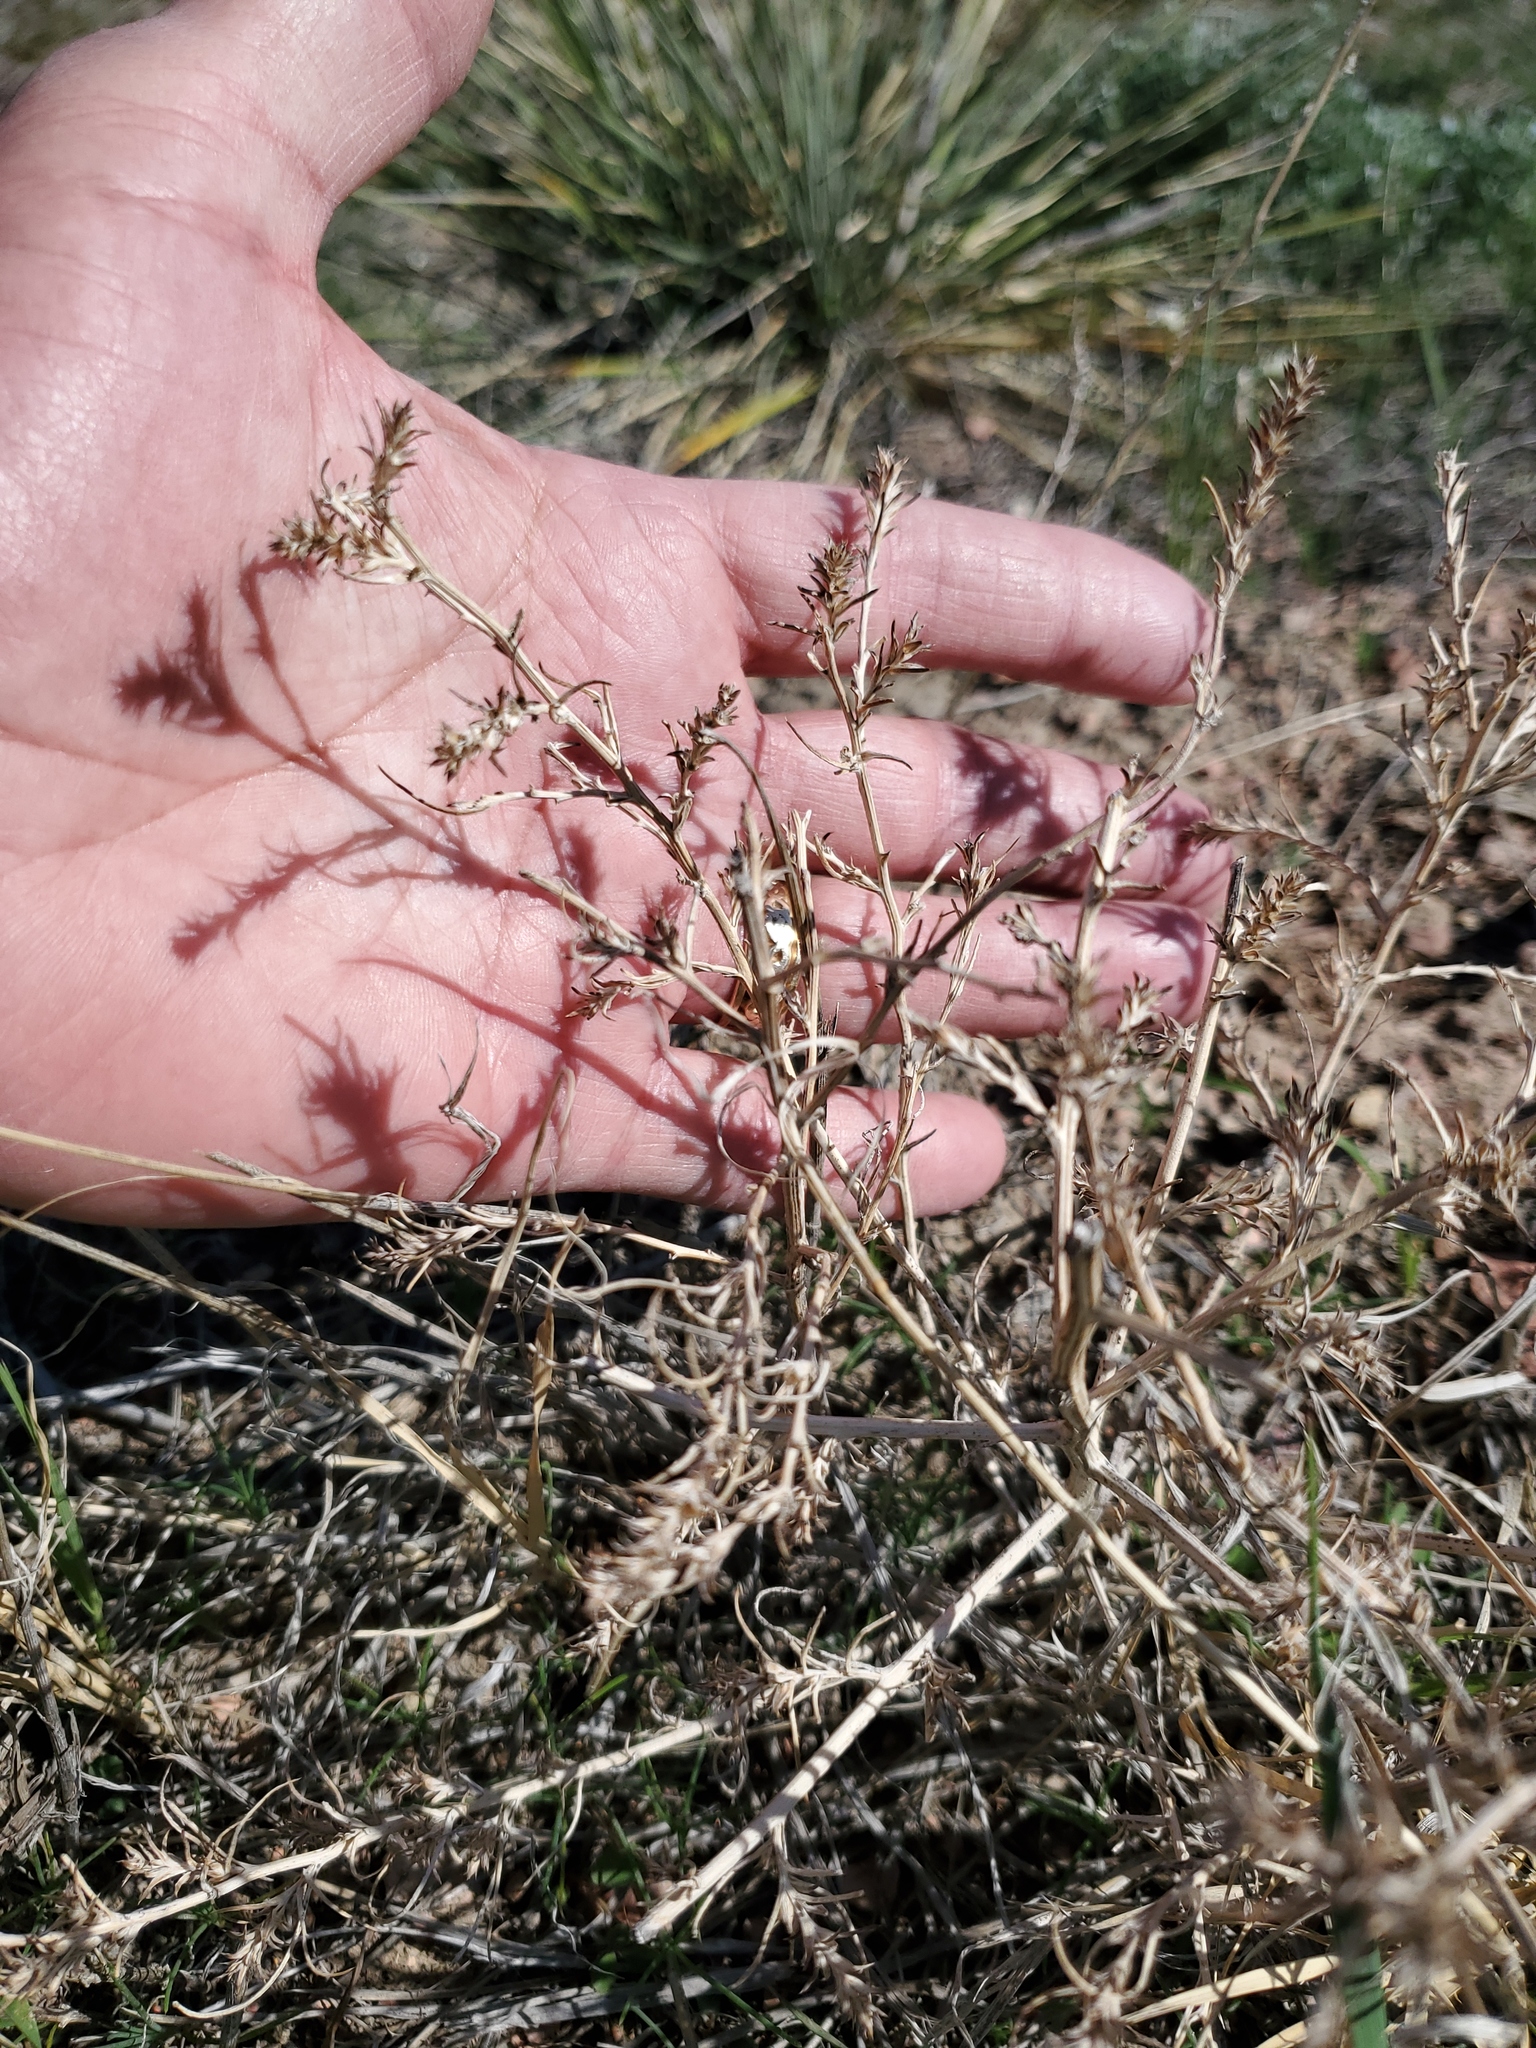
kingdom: Plantae
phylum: Tracheophyta
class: Magnoliopsida
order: Caryophyllales
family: Amaranthaceae
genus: Salsola
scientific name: Salsola tragus
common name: Prickly russian thistle
